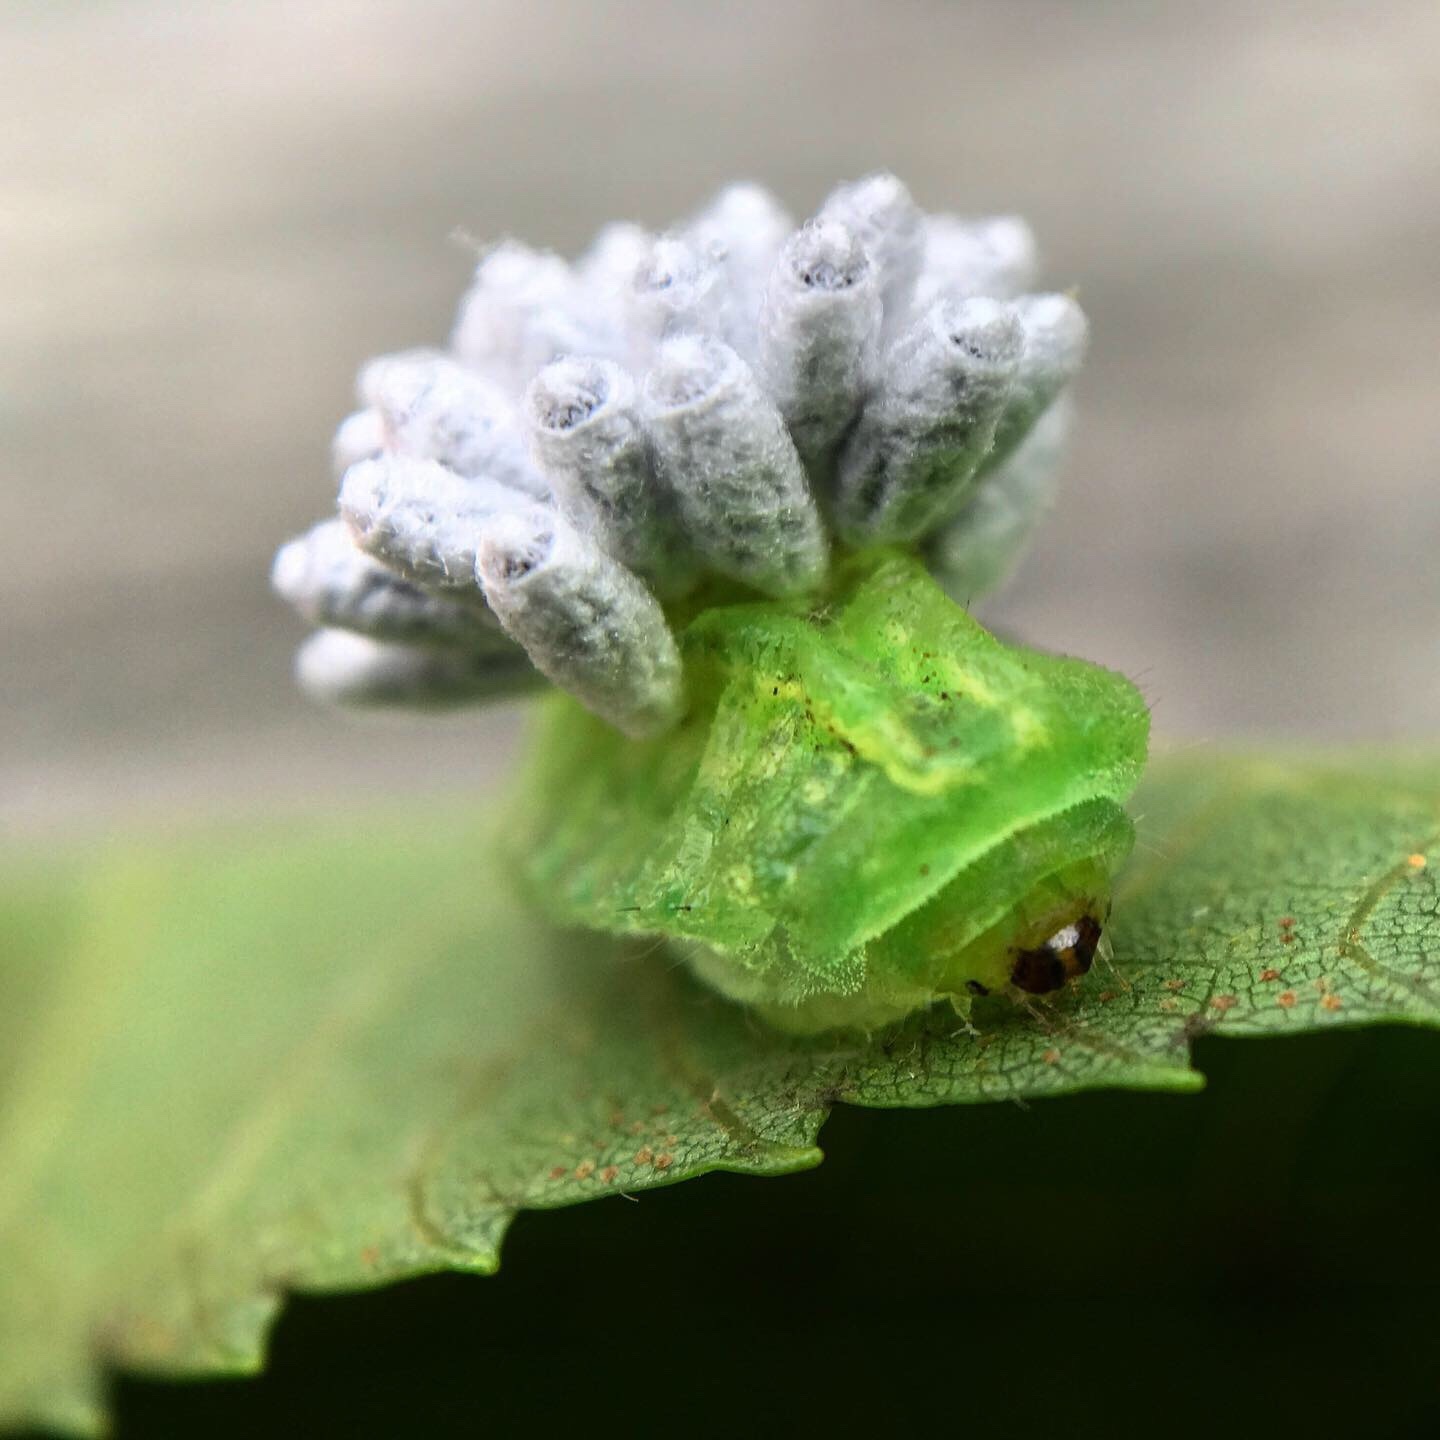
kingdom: Animalia
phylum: Arthropoda
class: Insecta
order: Hymenoptera
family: Braconidae
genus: Cotesia
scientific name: Cotesia empretiae
